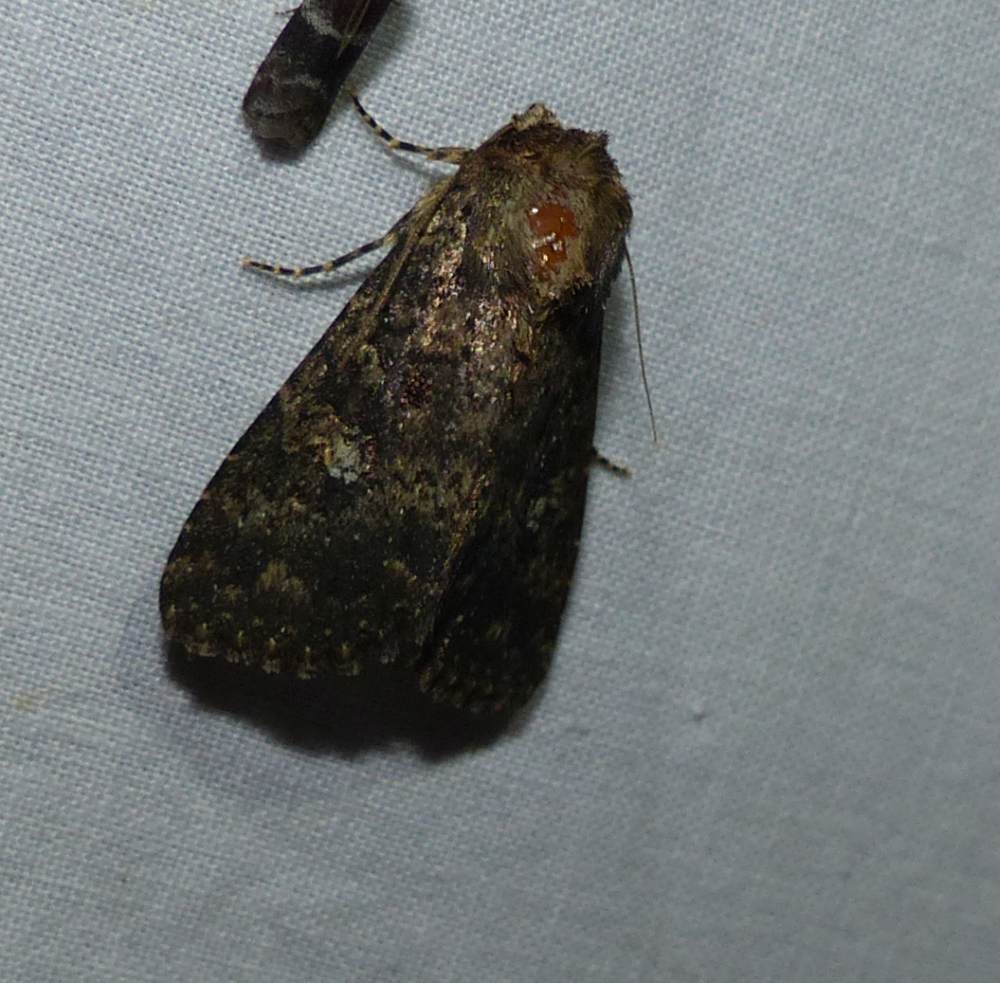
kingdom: Animalia
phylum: Arthropoda
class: Insecta
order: Lepidoptera
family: Noctuidae
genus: Condica
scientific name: Condica vecors
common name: Dusky groundling
